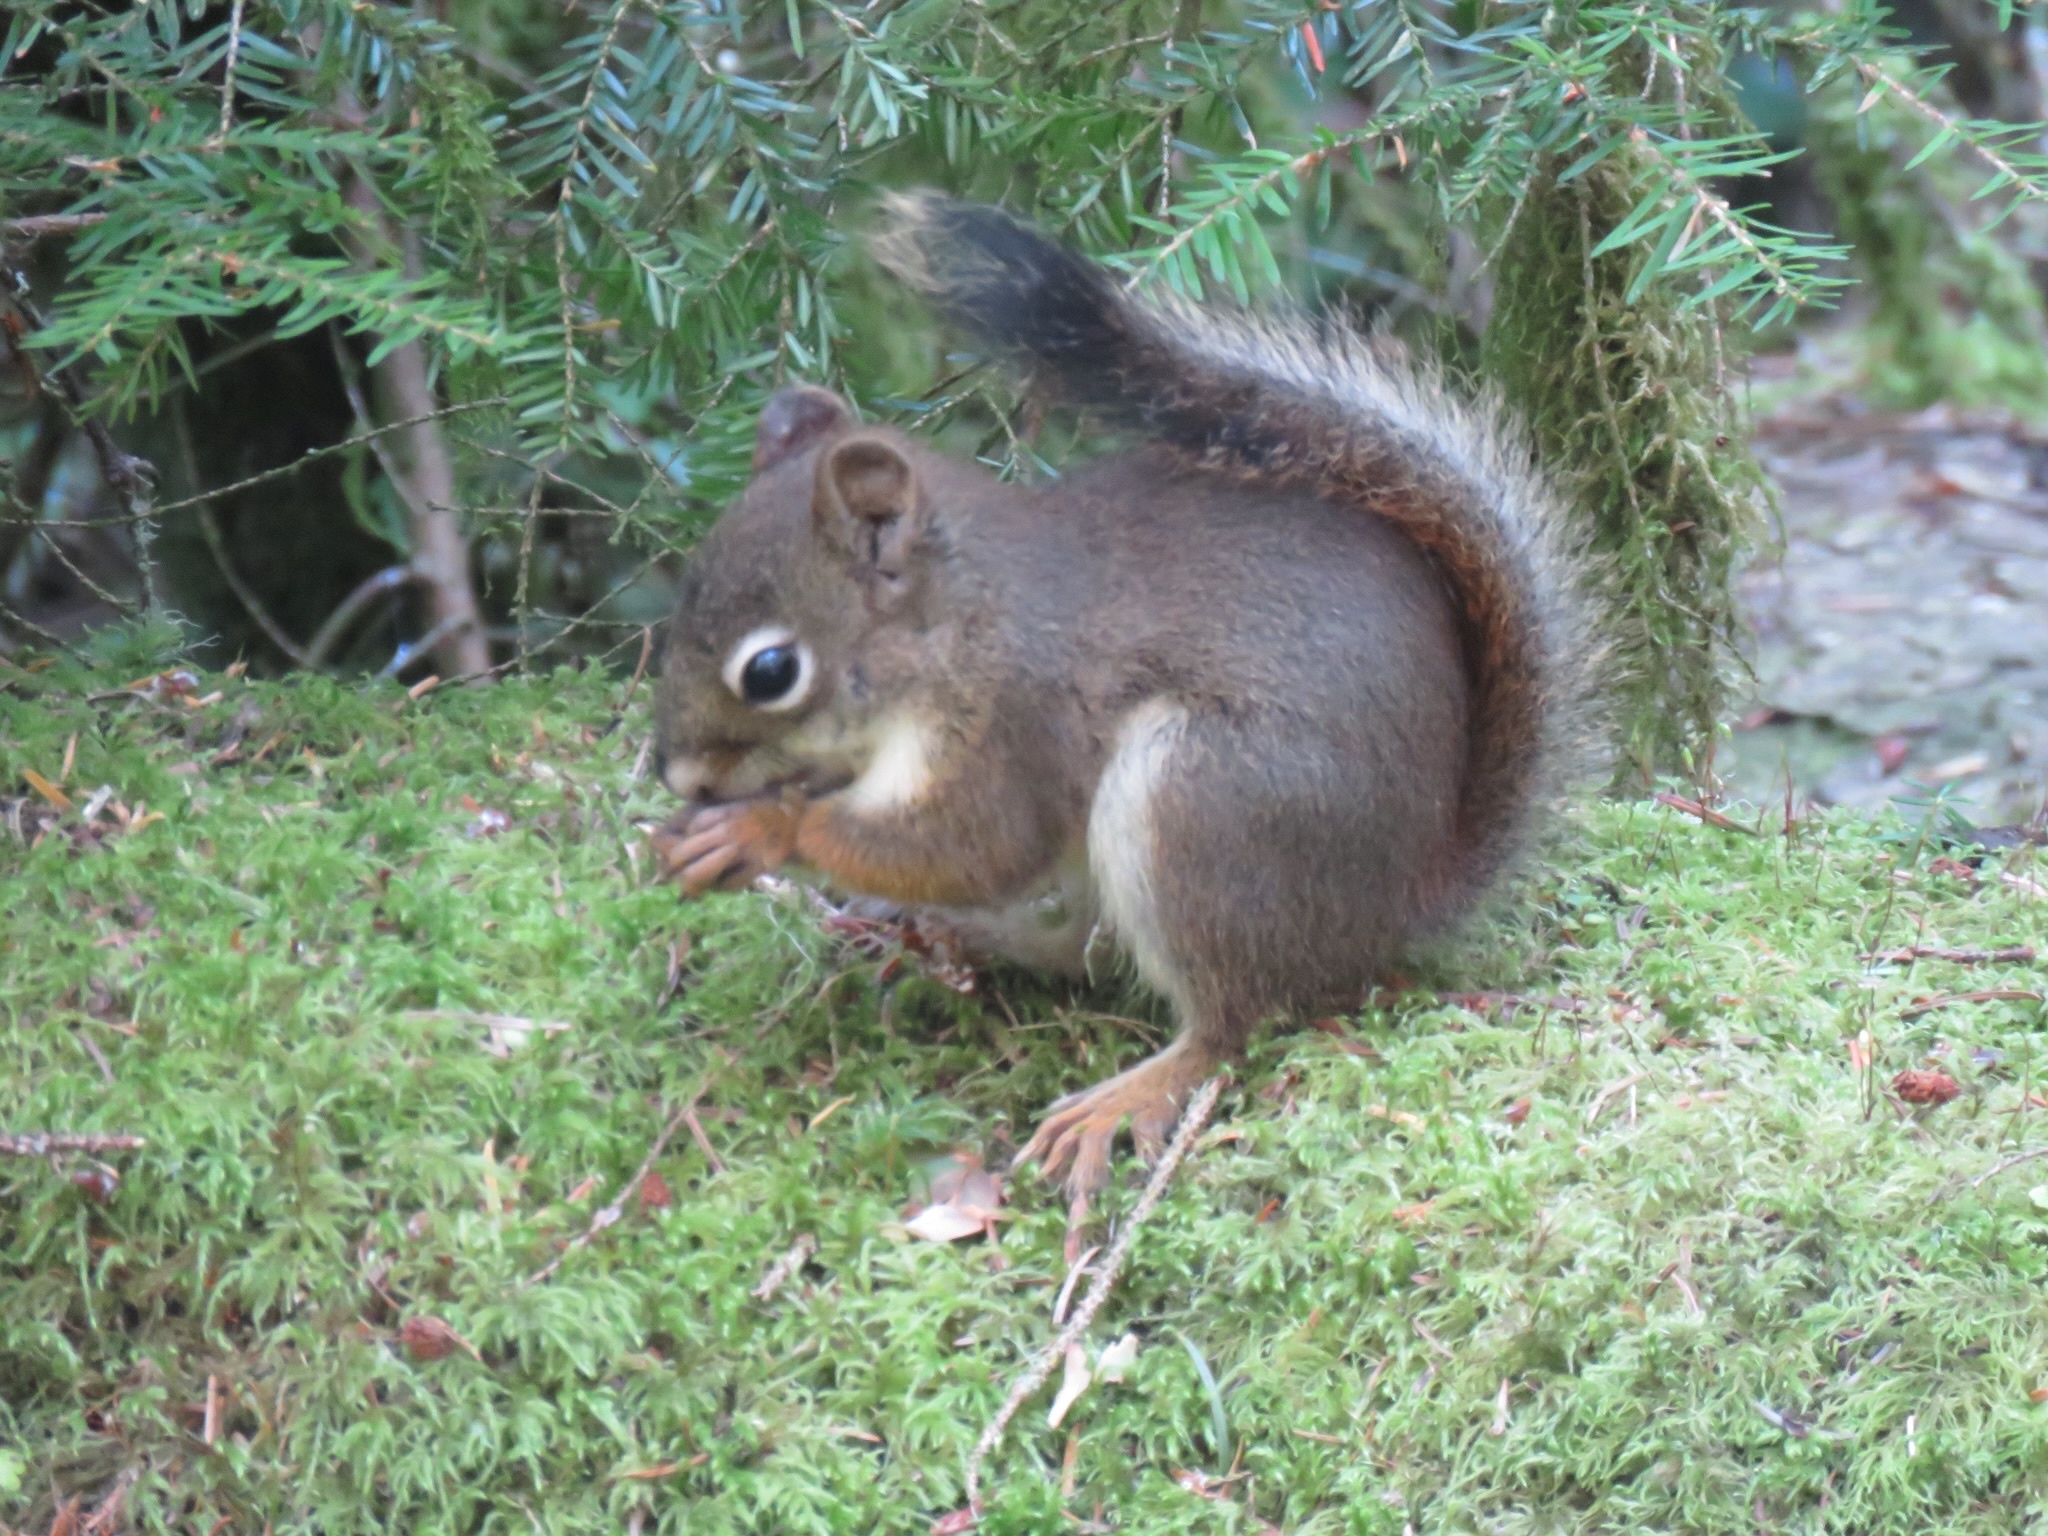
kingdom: Animalia
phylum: Chordata
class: Mammalia
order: Rodentia
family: Sciuridae
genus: Tamiasciurus
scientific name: Tamiasciurus hudsonicus
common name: Red squirrel
